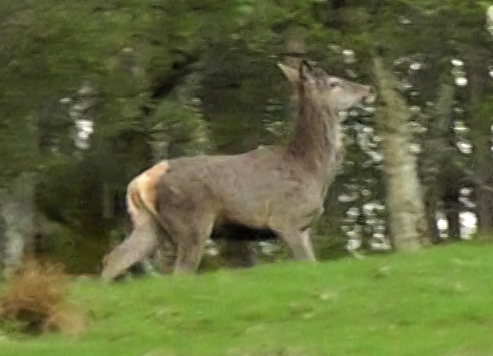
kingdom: Animalia
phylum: Chordata
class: Mammalia
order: Artiodactyla
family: Cervidae
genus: Cervus
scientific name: Cervus elaphus
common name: Red deer
